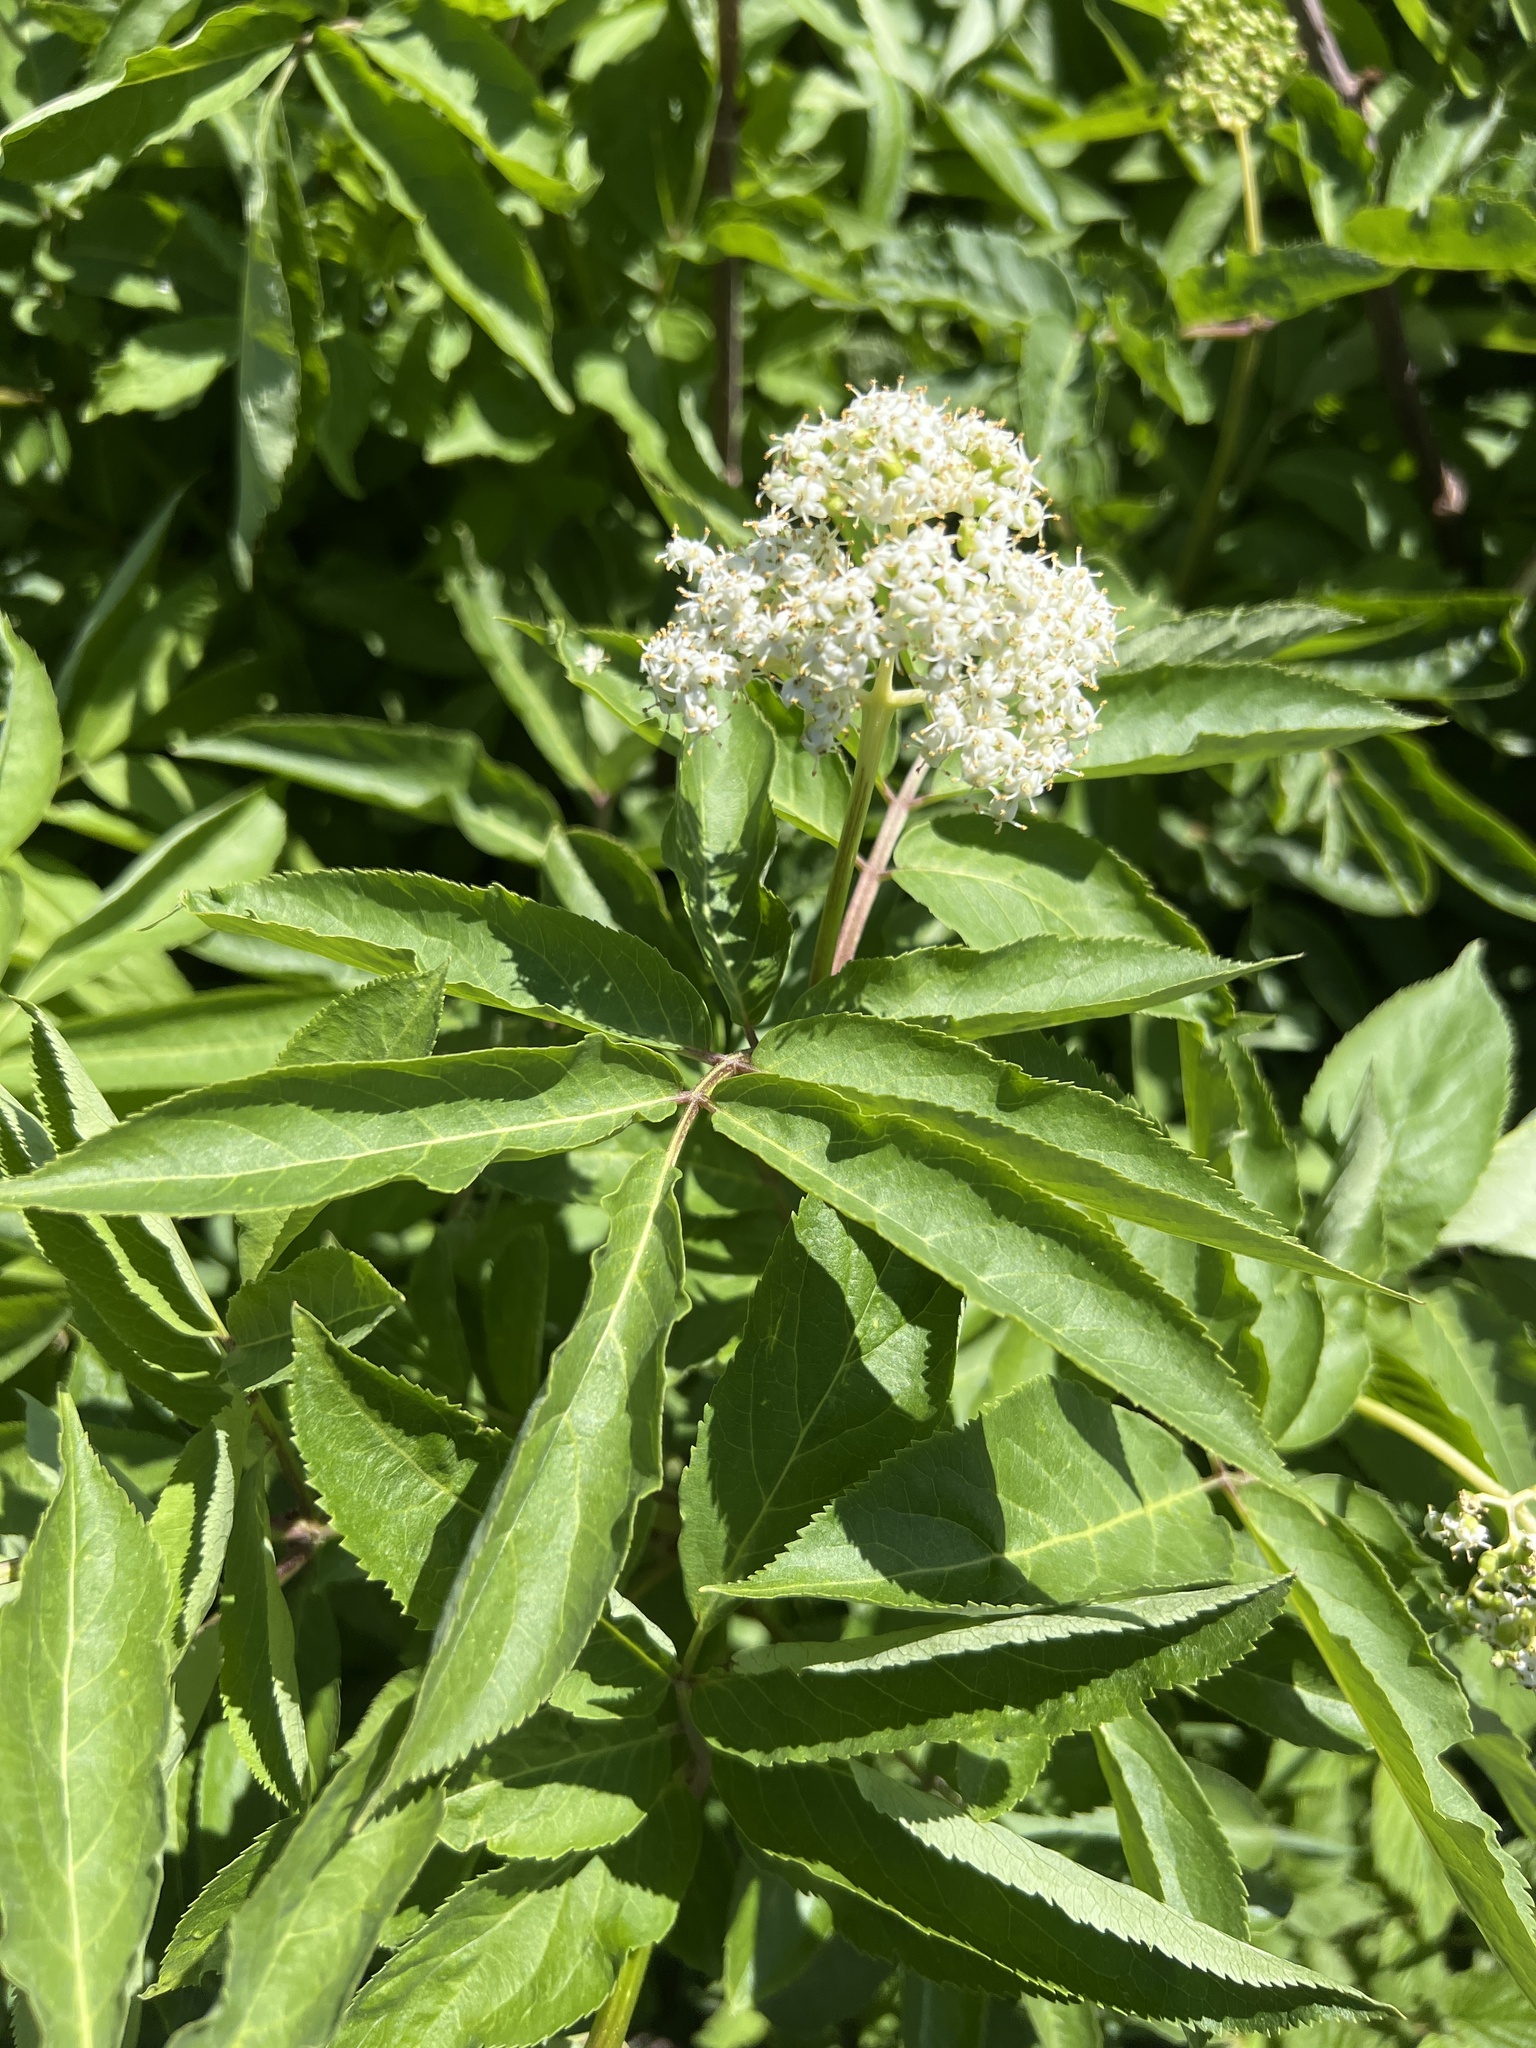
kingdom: Plantae
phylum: Tracheophyta
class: Magnoliopsida
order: Dipsacales
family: Viburnaceae
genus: Sambucus
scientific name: Sambucus racemosa
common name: Red-berried elder
